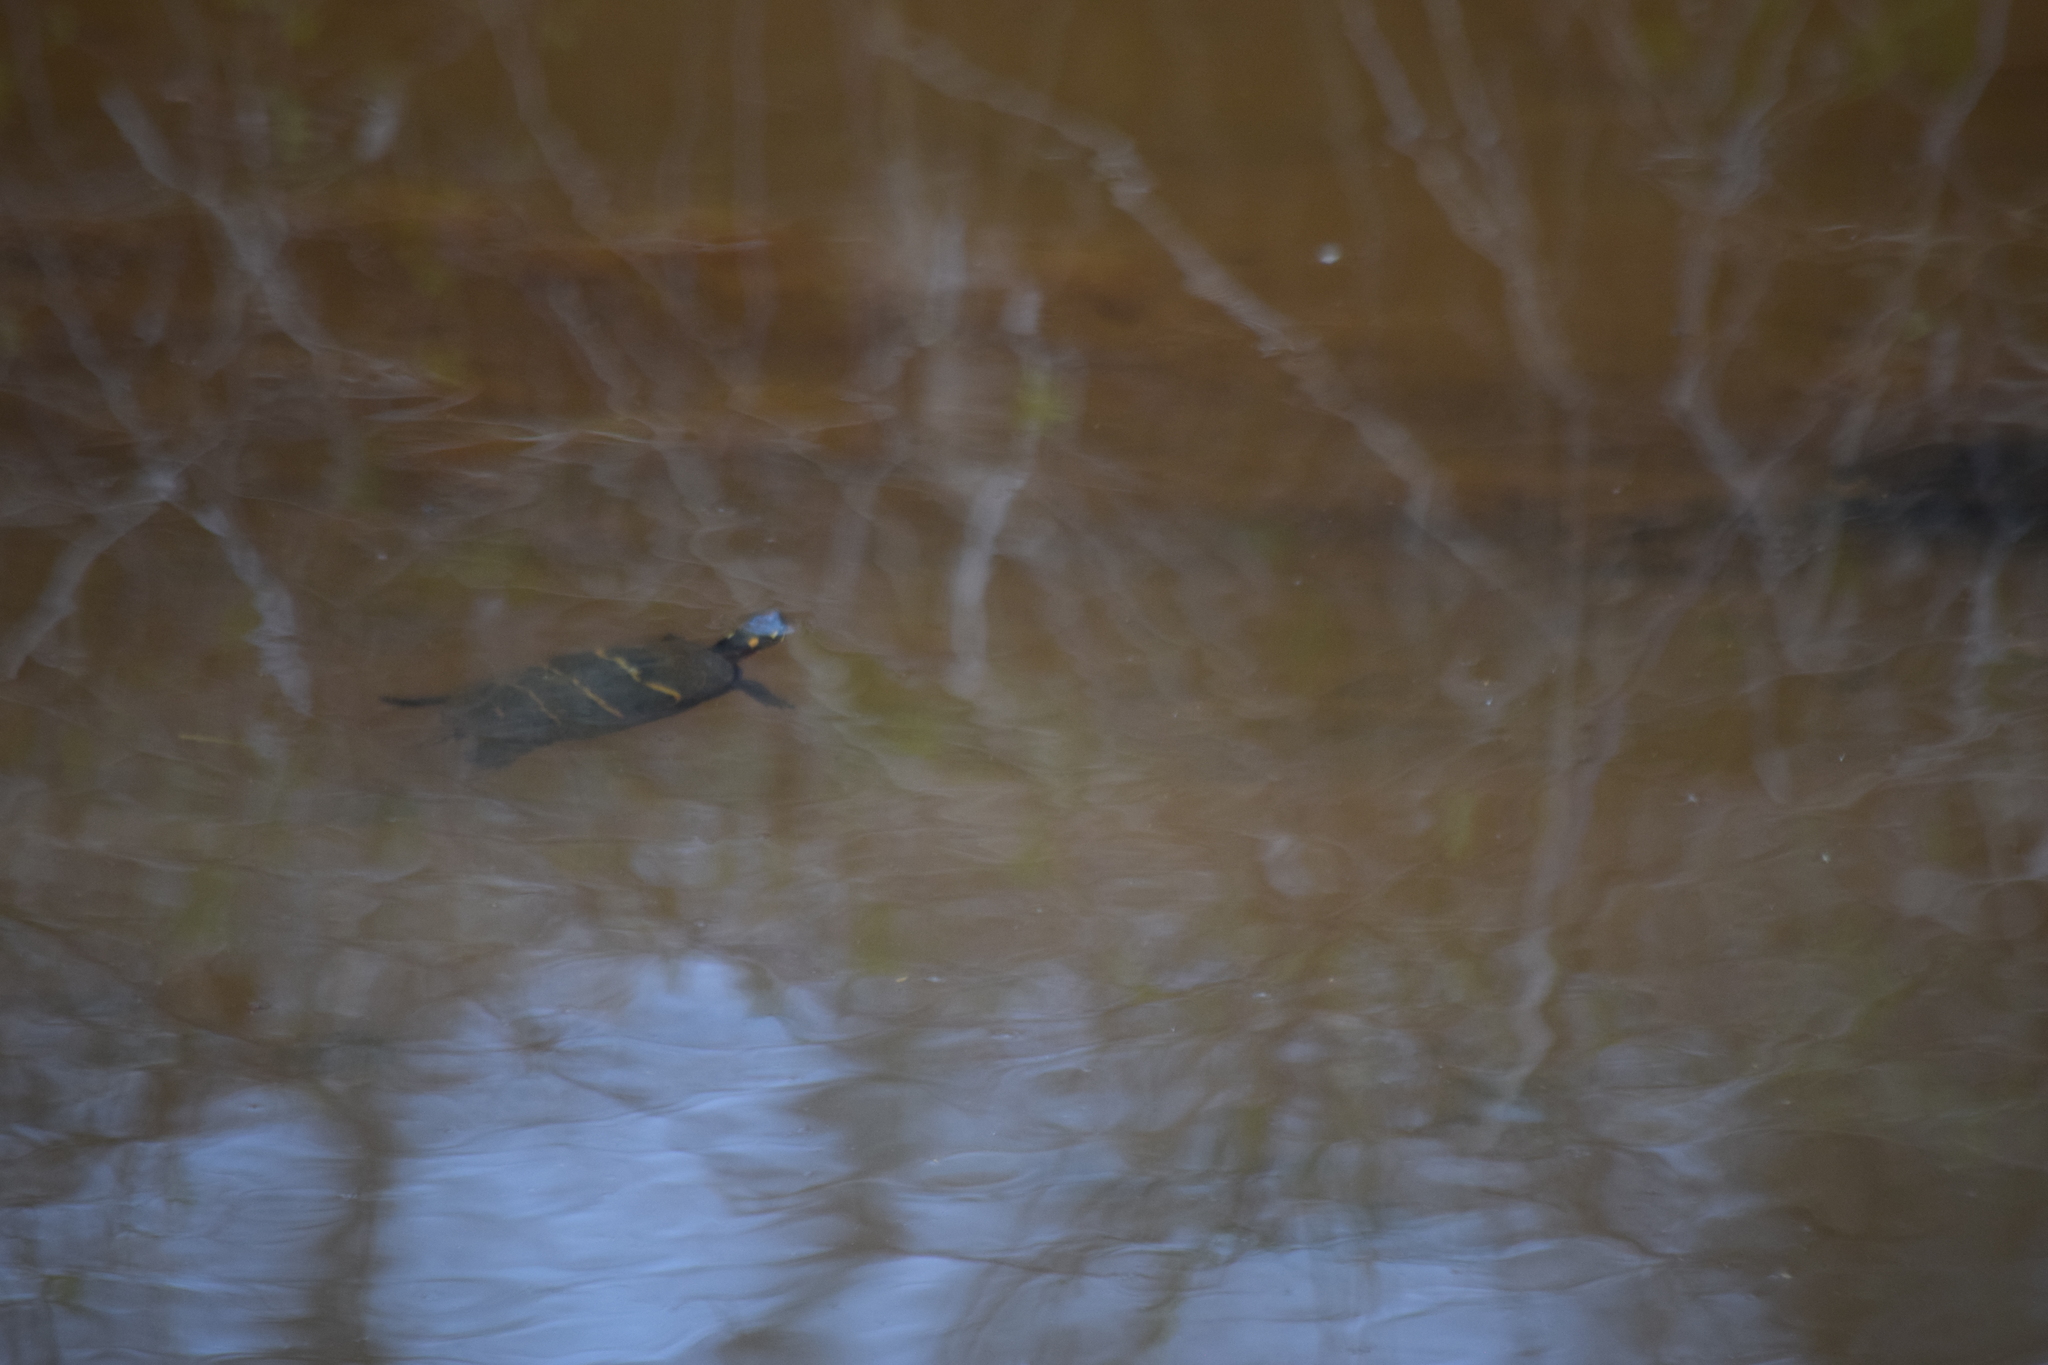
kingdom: Animalia
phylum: Chordata
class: Testudines
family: Emydidae
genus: Chrysemys
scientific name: Chrysemys picta
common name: Painted turtle
